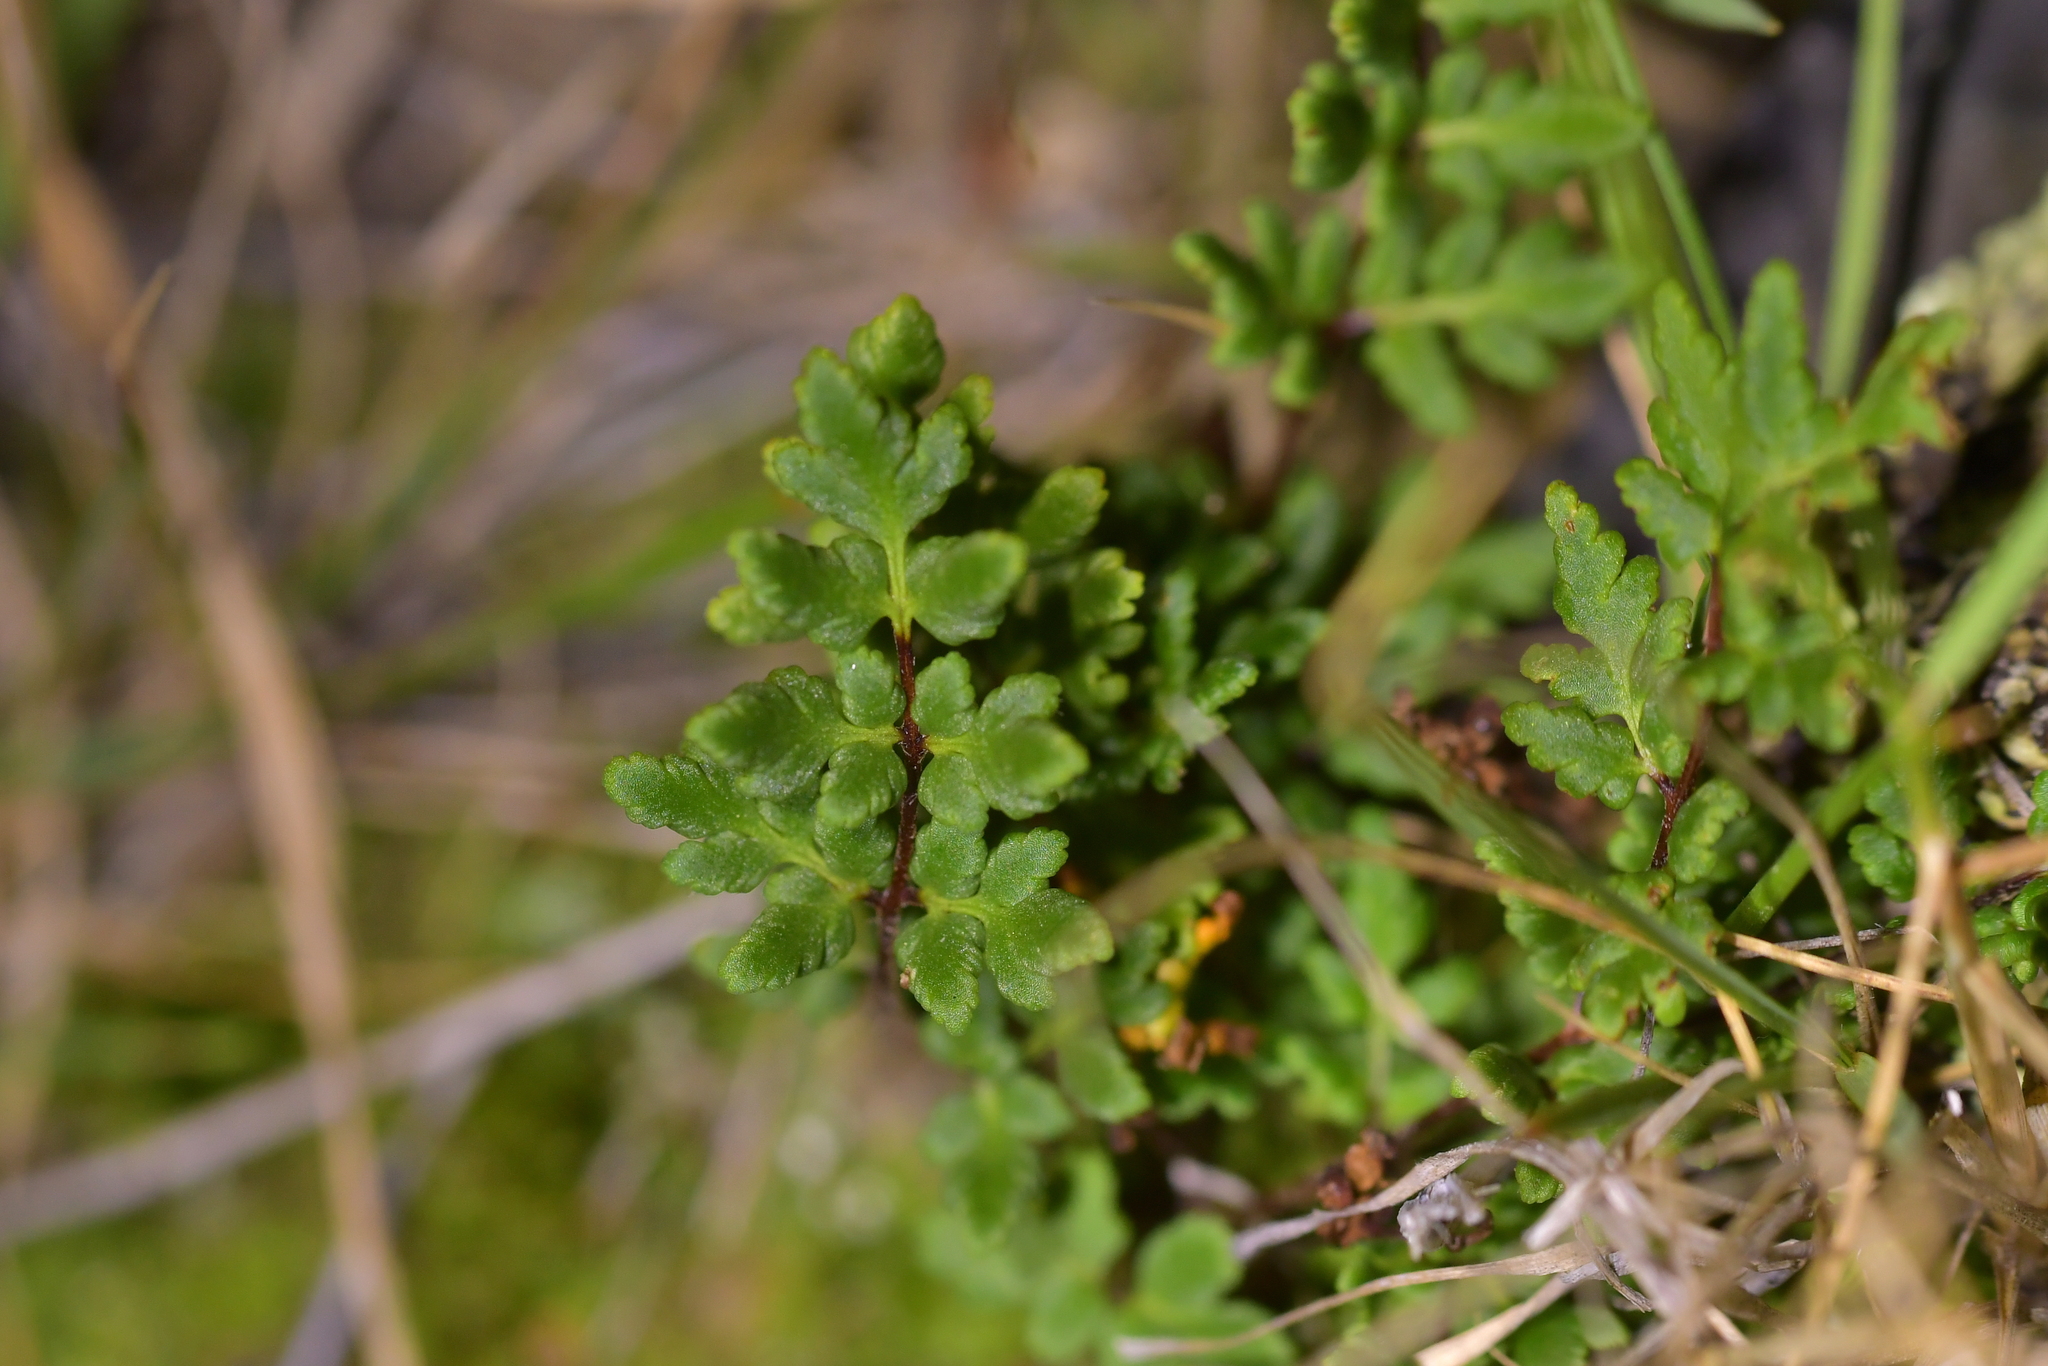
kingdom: Plantae
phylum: Tracheophyta
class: Polypodiopsida
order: Polypodiales
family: Pteridaceae
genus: Cheilanthes
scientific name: Cheilanthes sieberi
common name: Mulga fern
